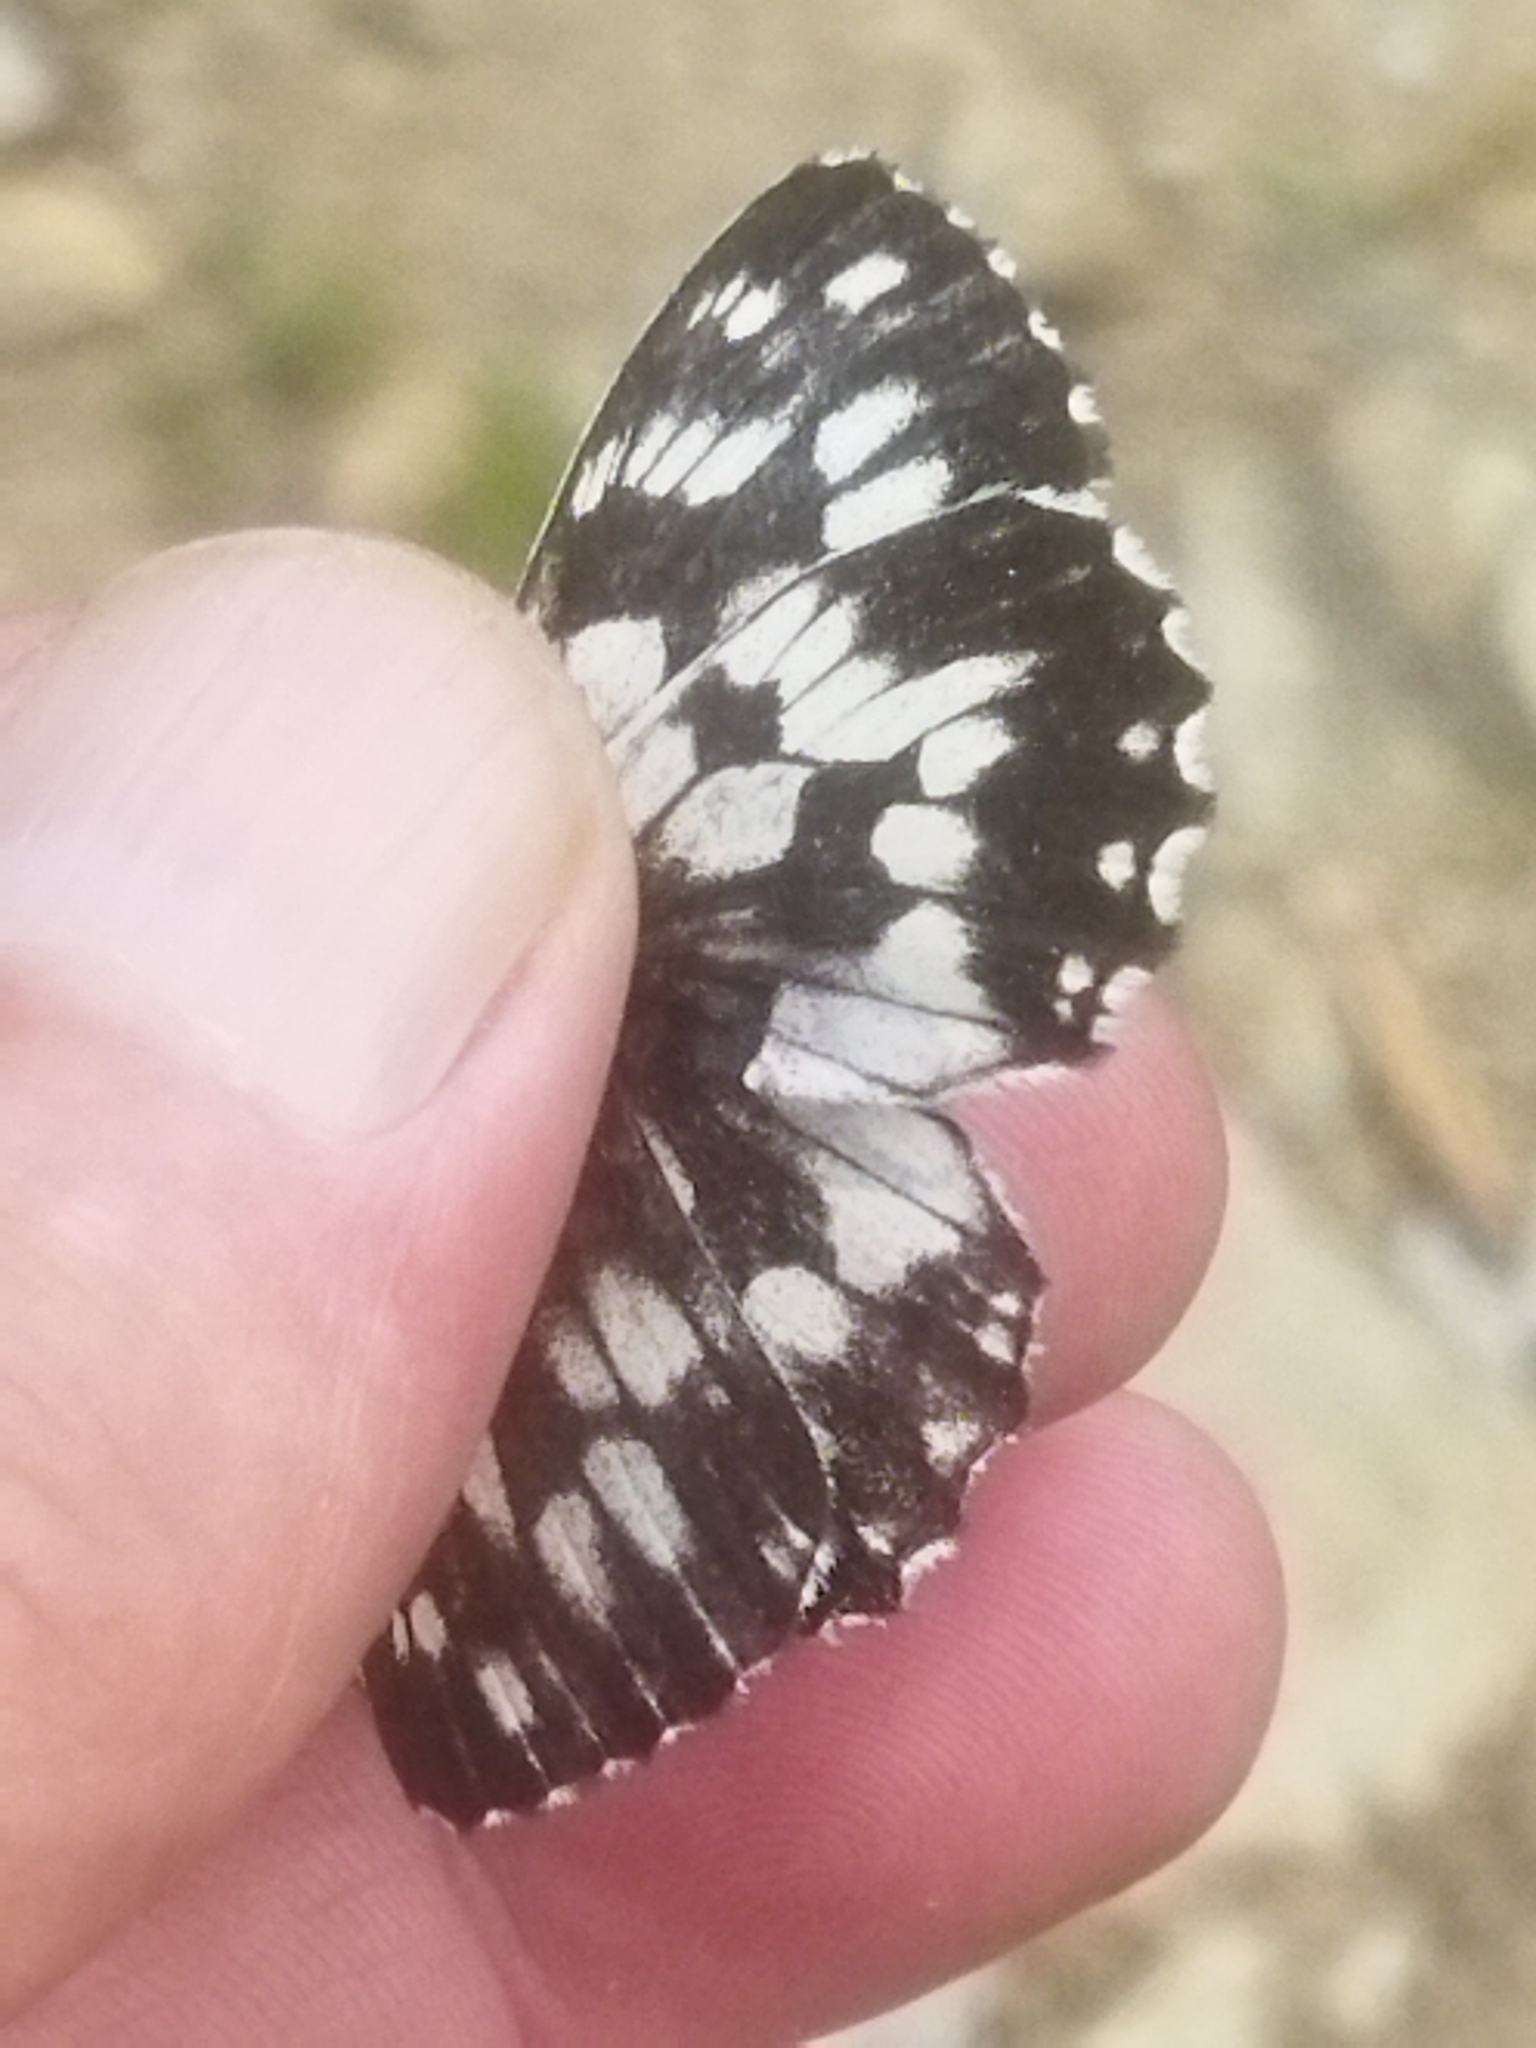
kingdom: Animalia
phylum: Arthropoda
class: Insecta
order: Lepidoptera
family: Nymphalidae
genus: Melanargia
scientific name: Melanargia galathea
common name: Marbled white
